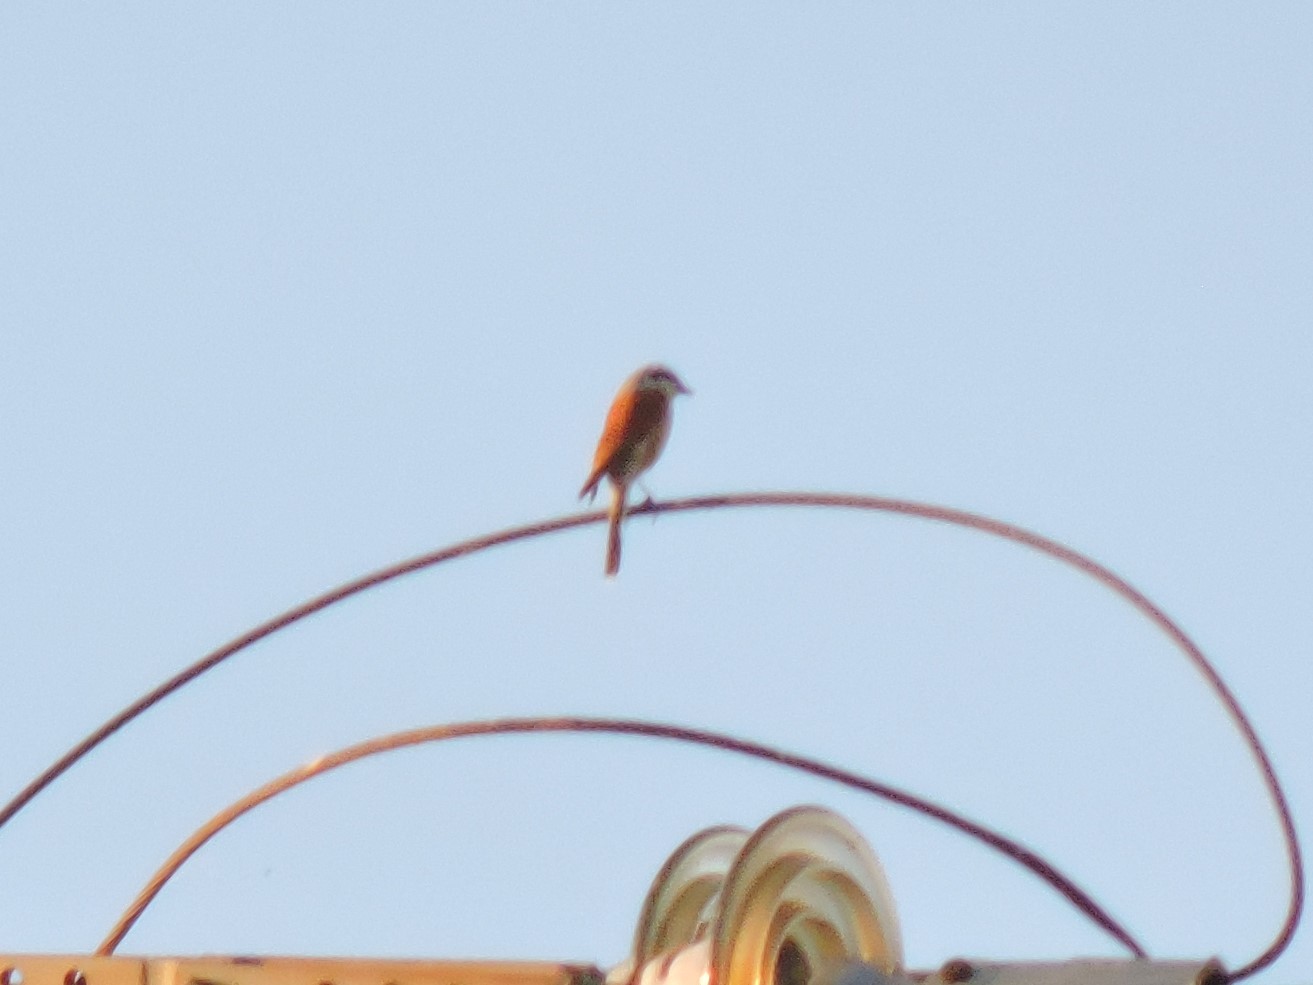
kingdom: Animalia
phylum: Chordata
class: Aves
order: Passeriformes
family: Laniidae
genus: Lanius
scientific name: Lanius collurio
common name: Red-backed shrike
